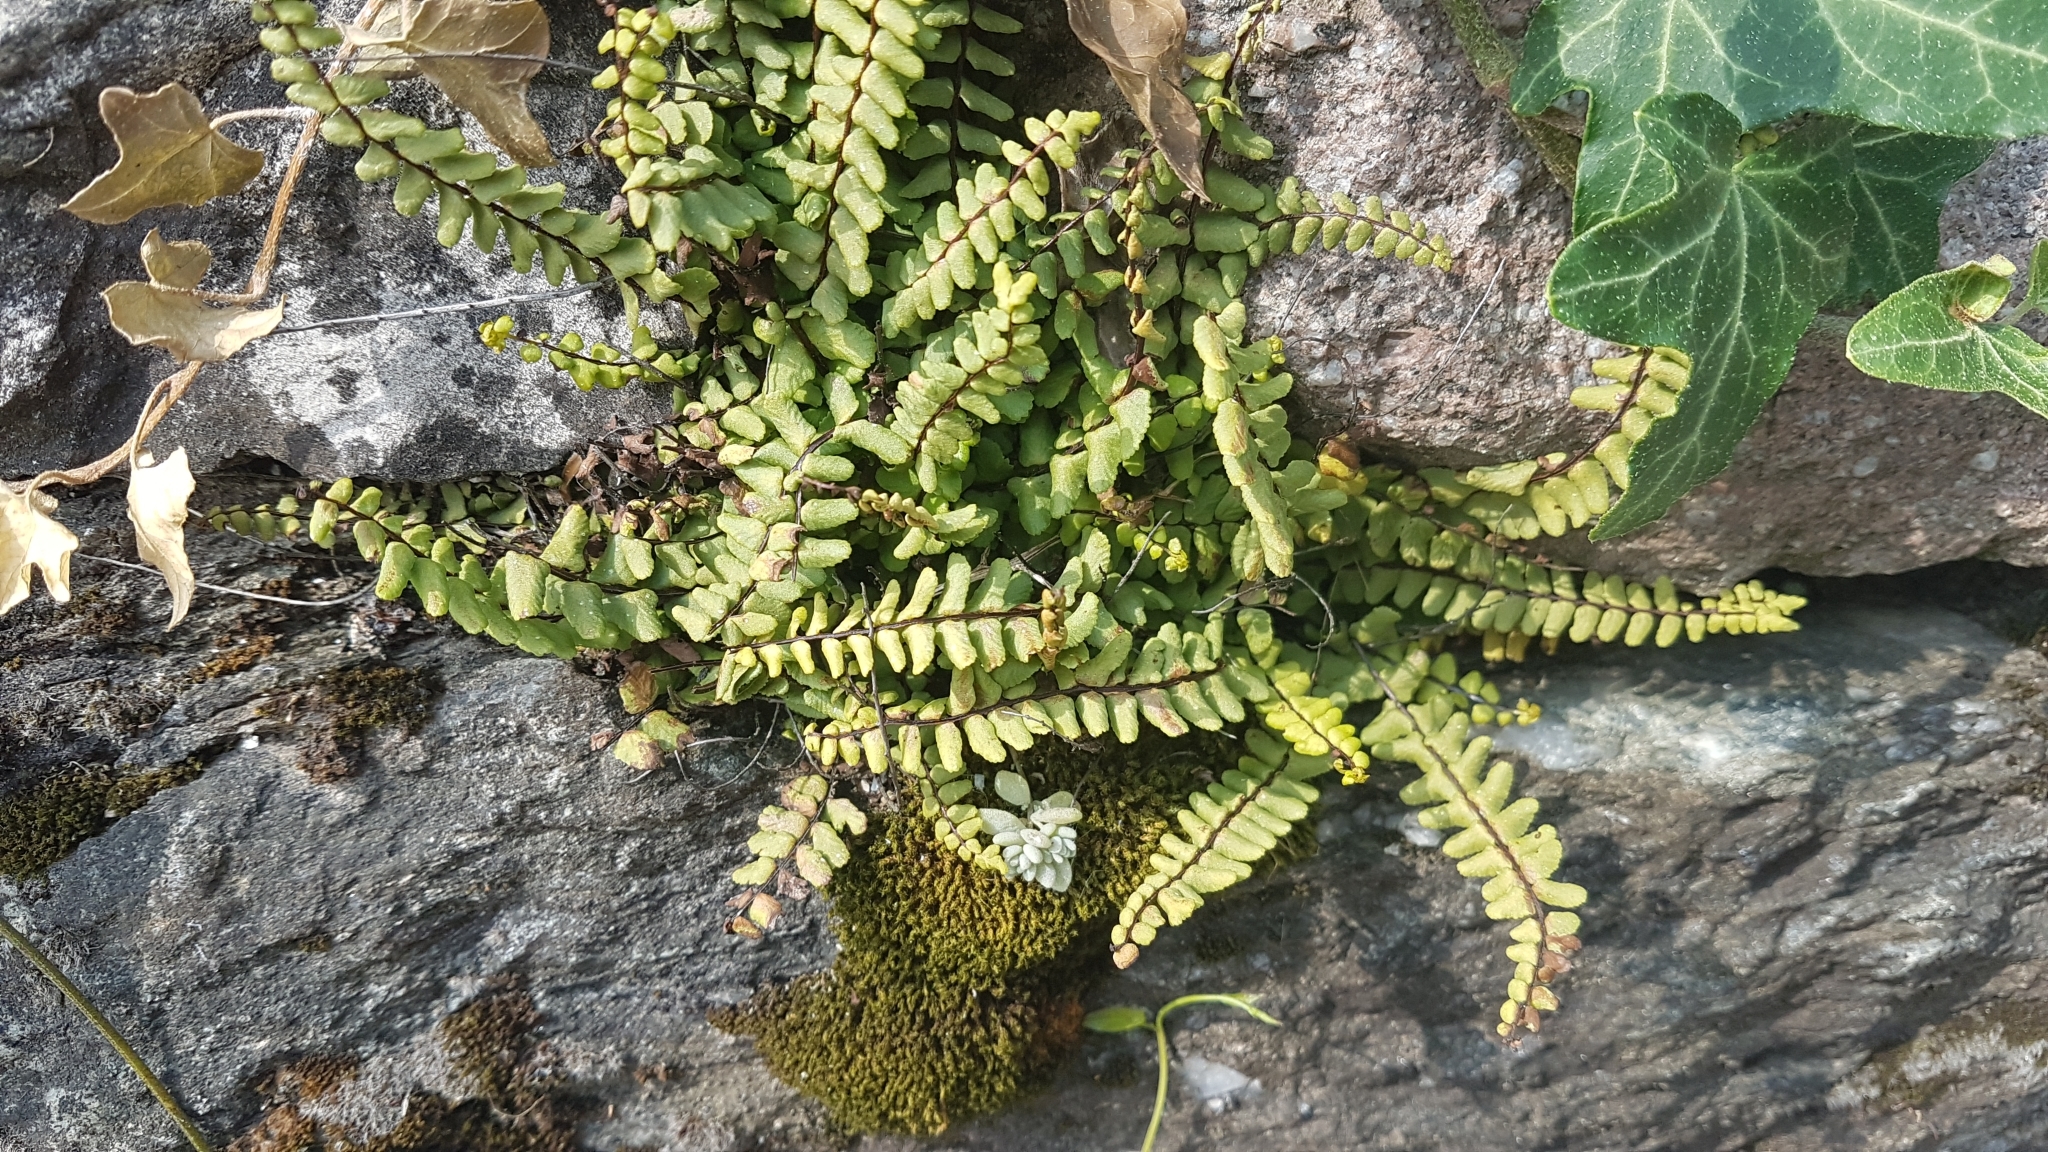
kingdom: Plantae
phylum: Tracheophyta
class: Polypodiopsida
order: Polypodiales
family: Aspleniaceae
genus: Asplenium
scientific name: Asplenium trichomanes
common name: Maidenhair spleenwort
